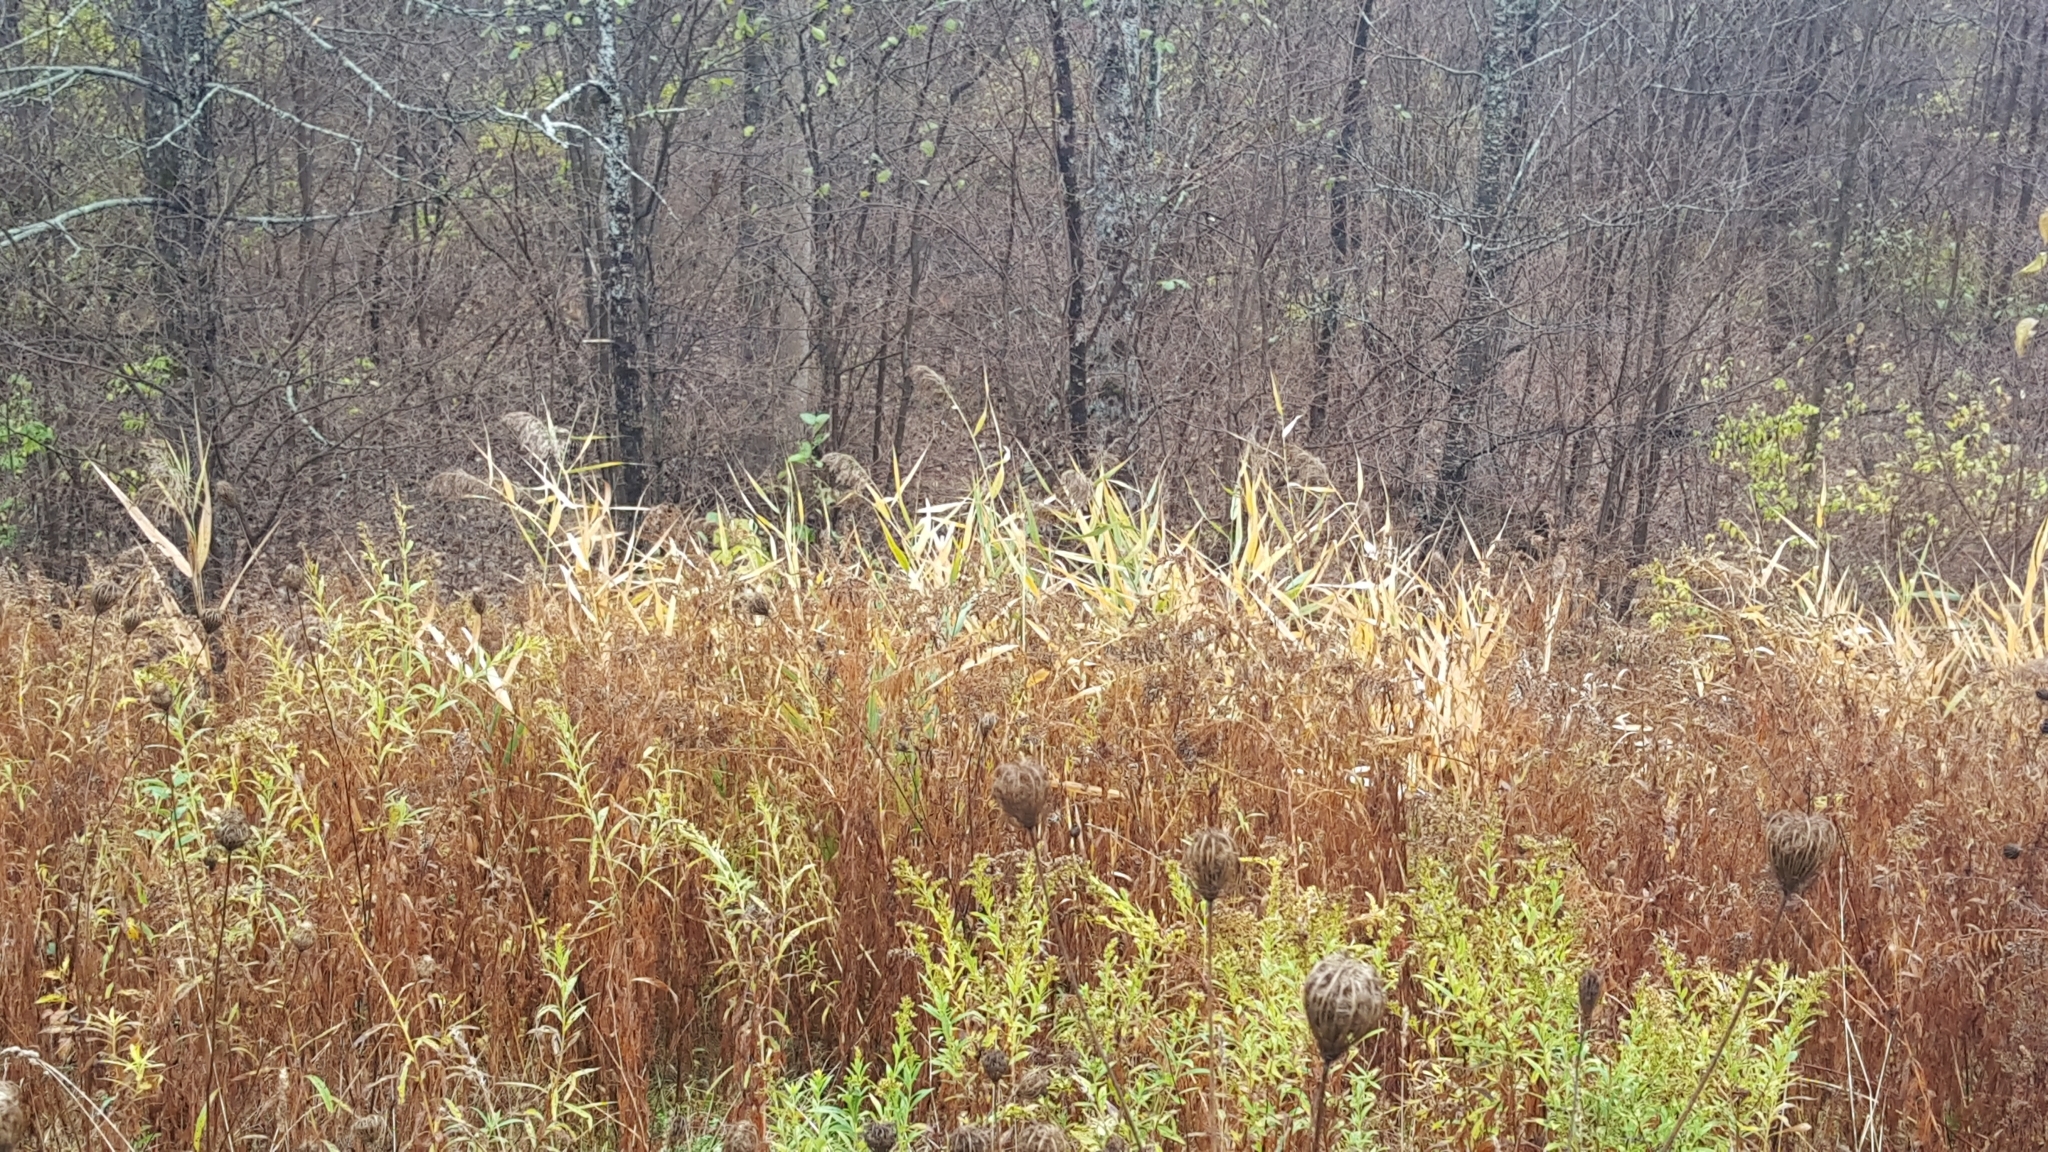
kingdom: Plantae
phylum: Tracheophyta
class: Liliopsida
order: Poales
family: Poaceae
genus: Phragmites
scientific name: Phragmites australis
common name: Common reed
